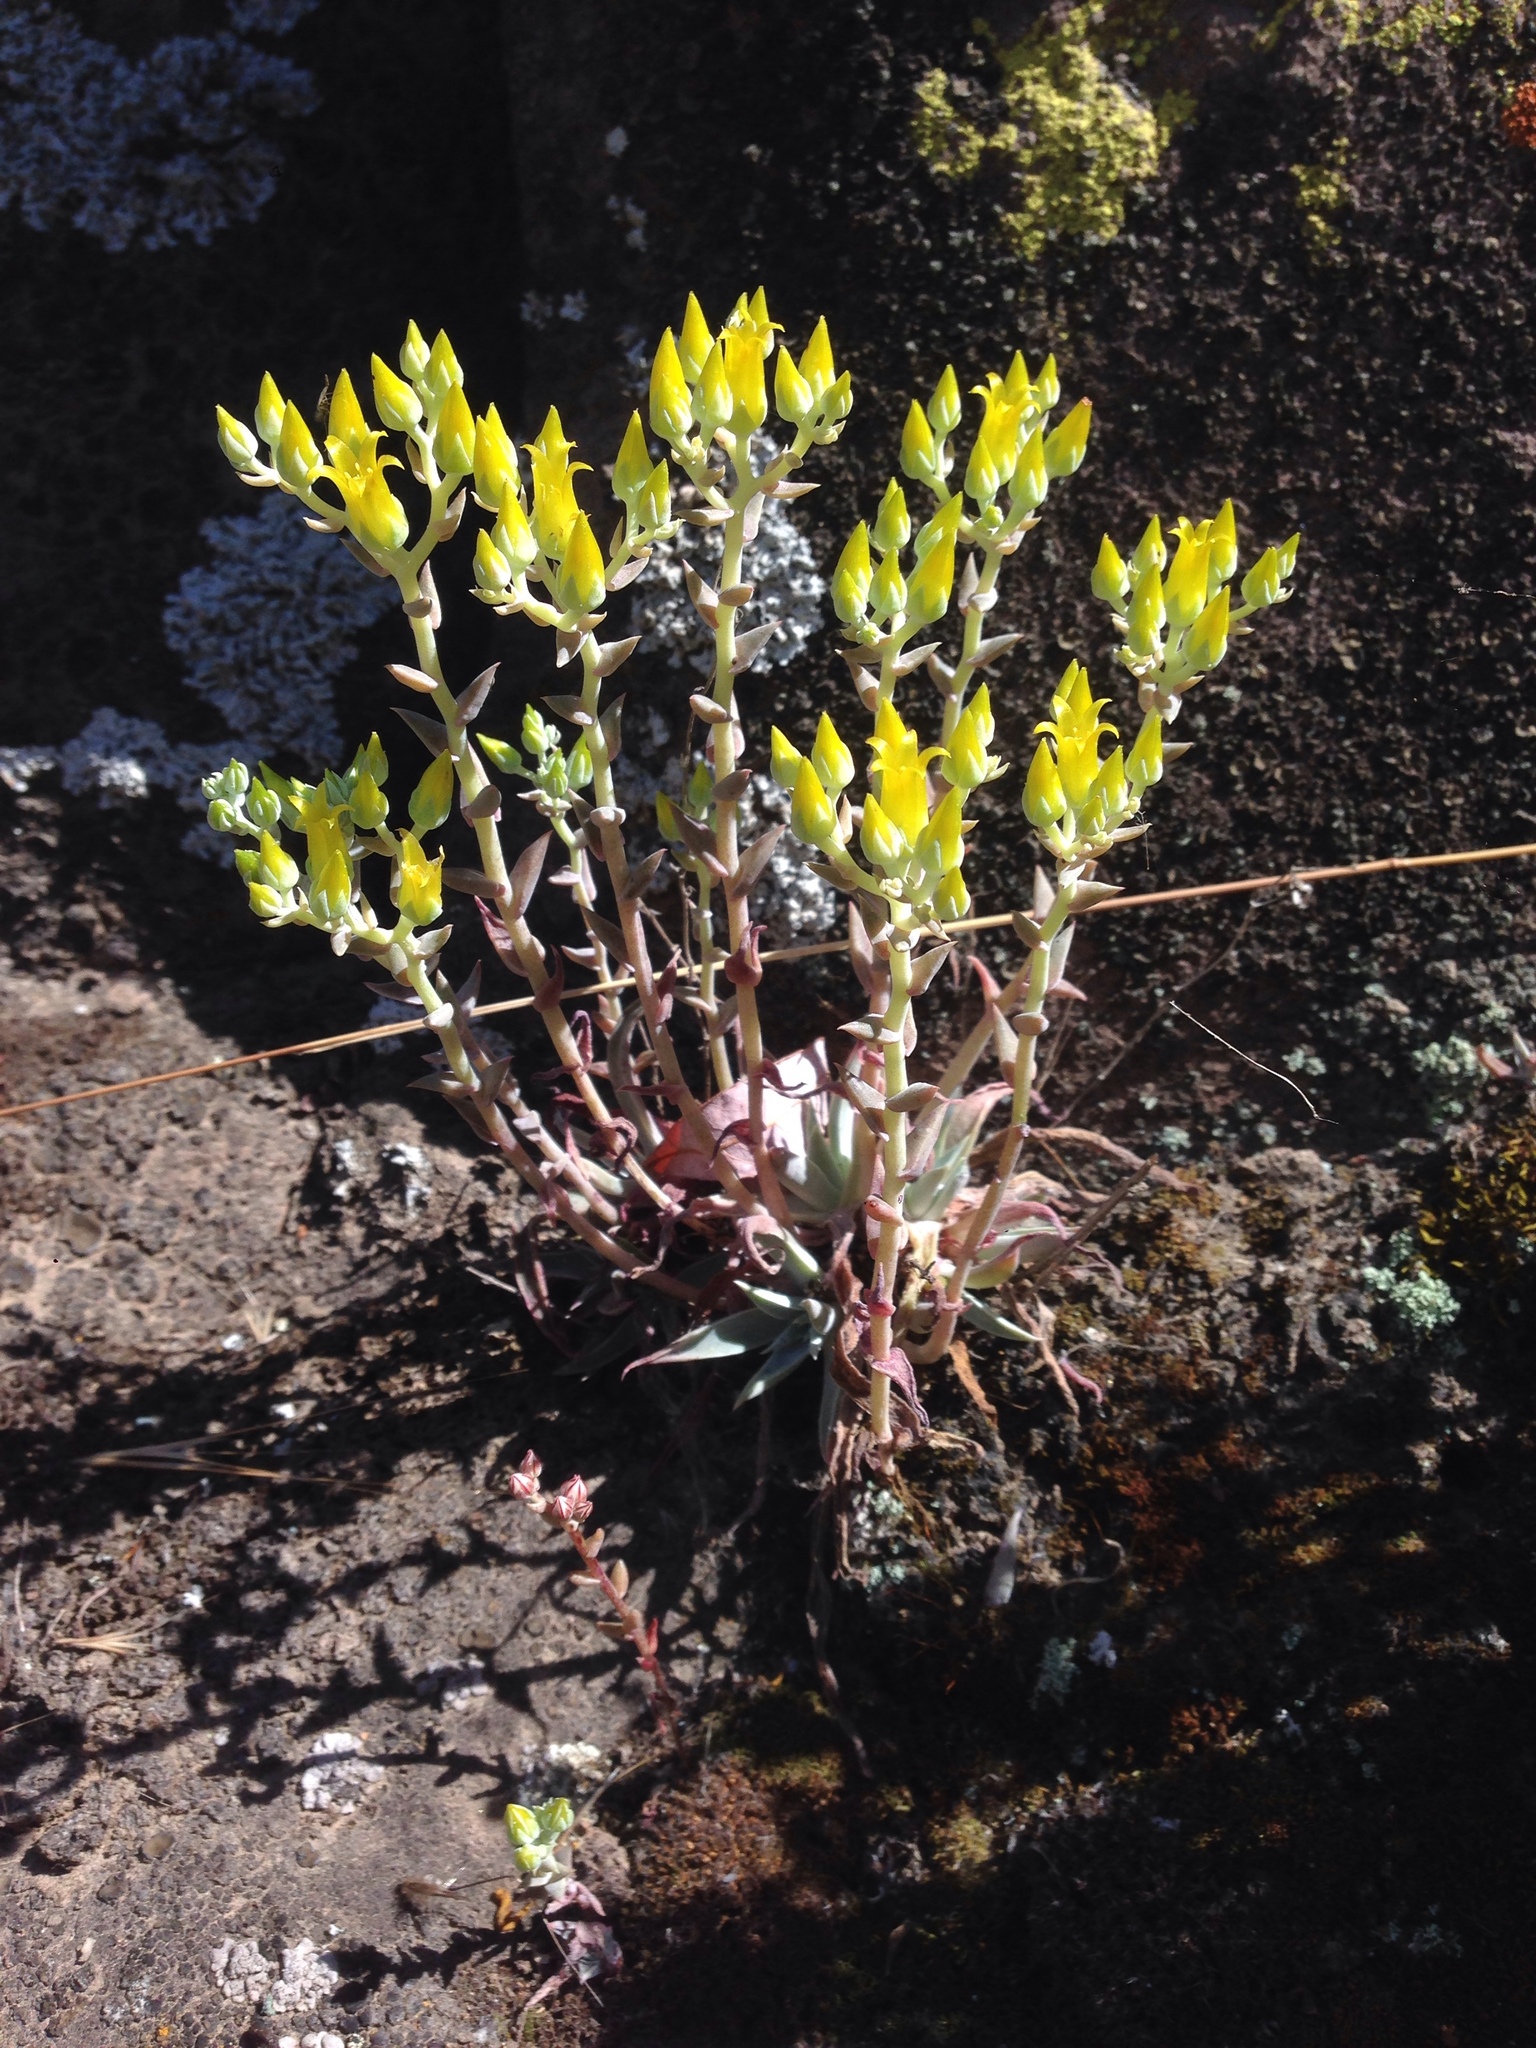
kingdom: Plantae
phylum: Tracheophyta
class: Magnoliopsida
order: Saxifragales
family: Crassulaceae
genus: Dudleya
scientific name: Dudleya verityi
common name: Verity dudleya
